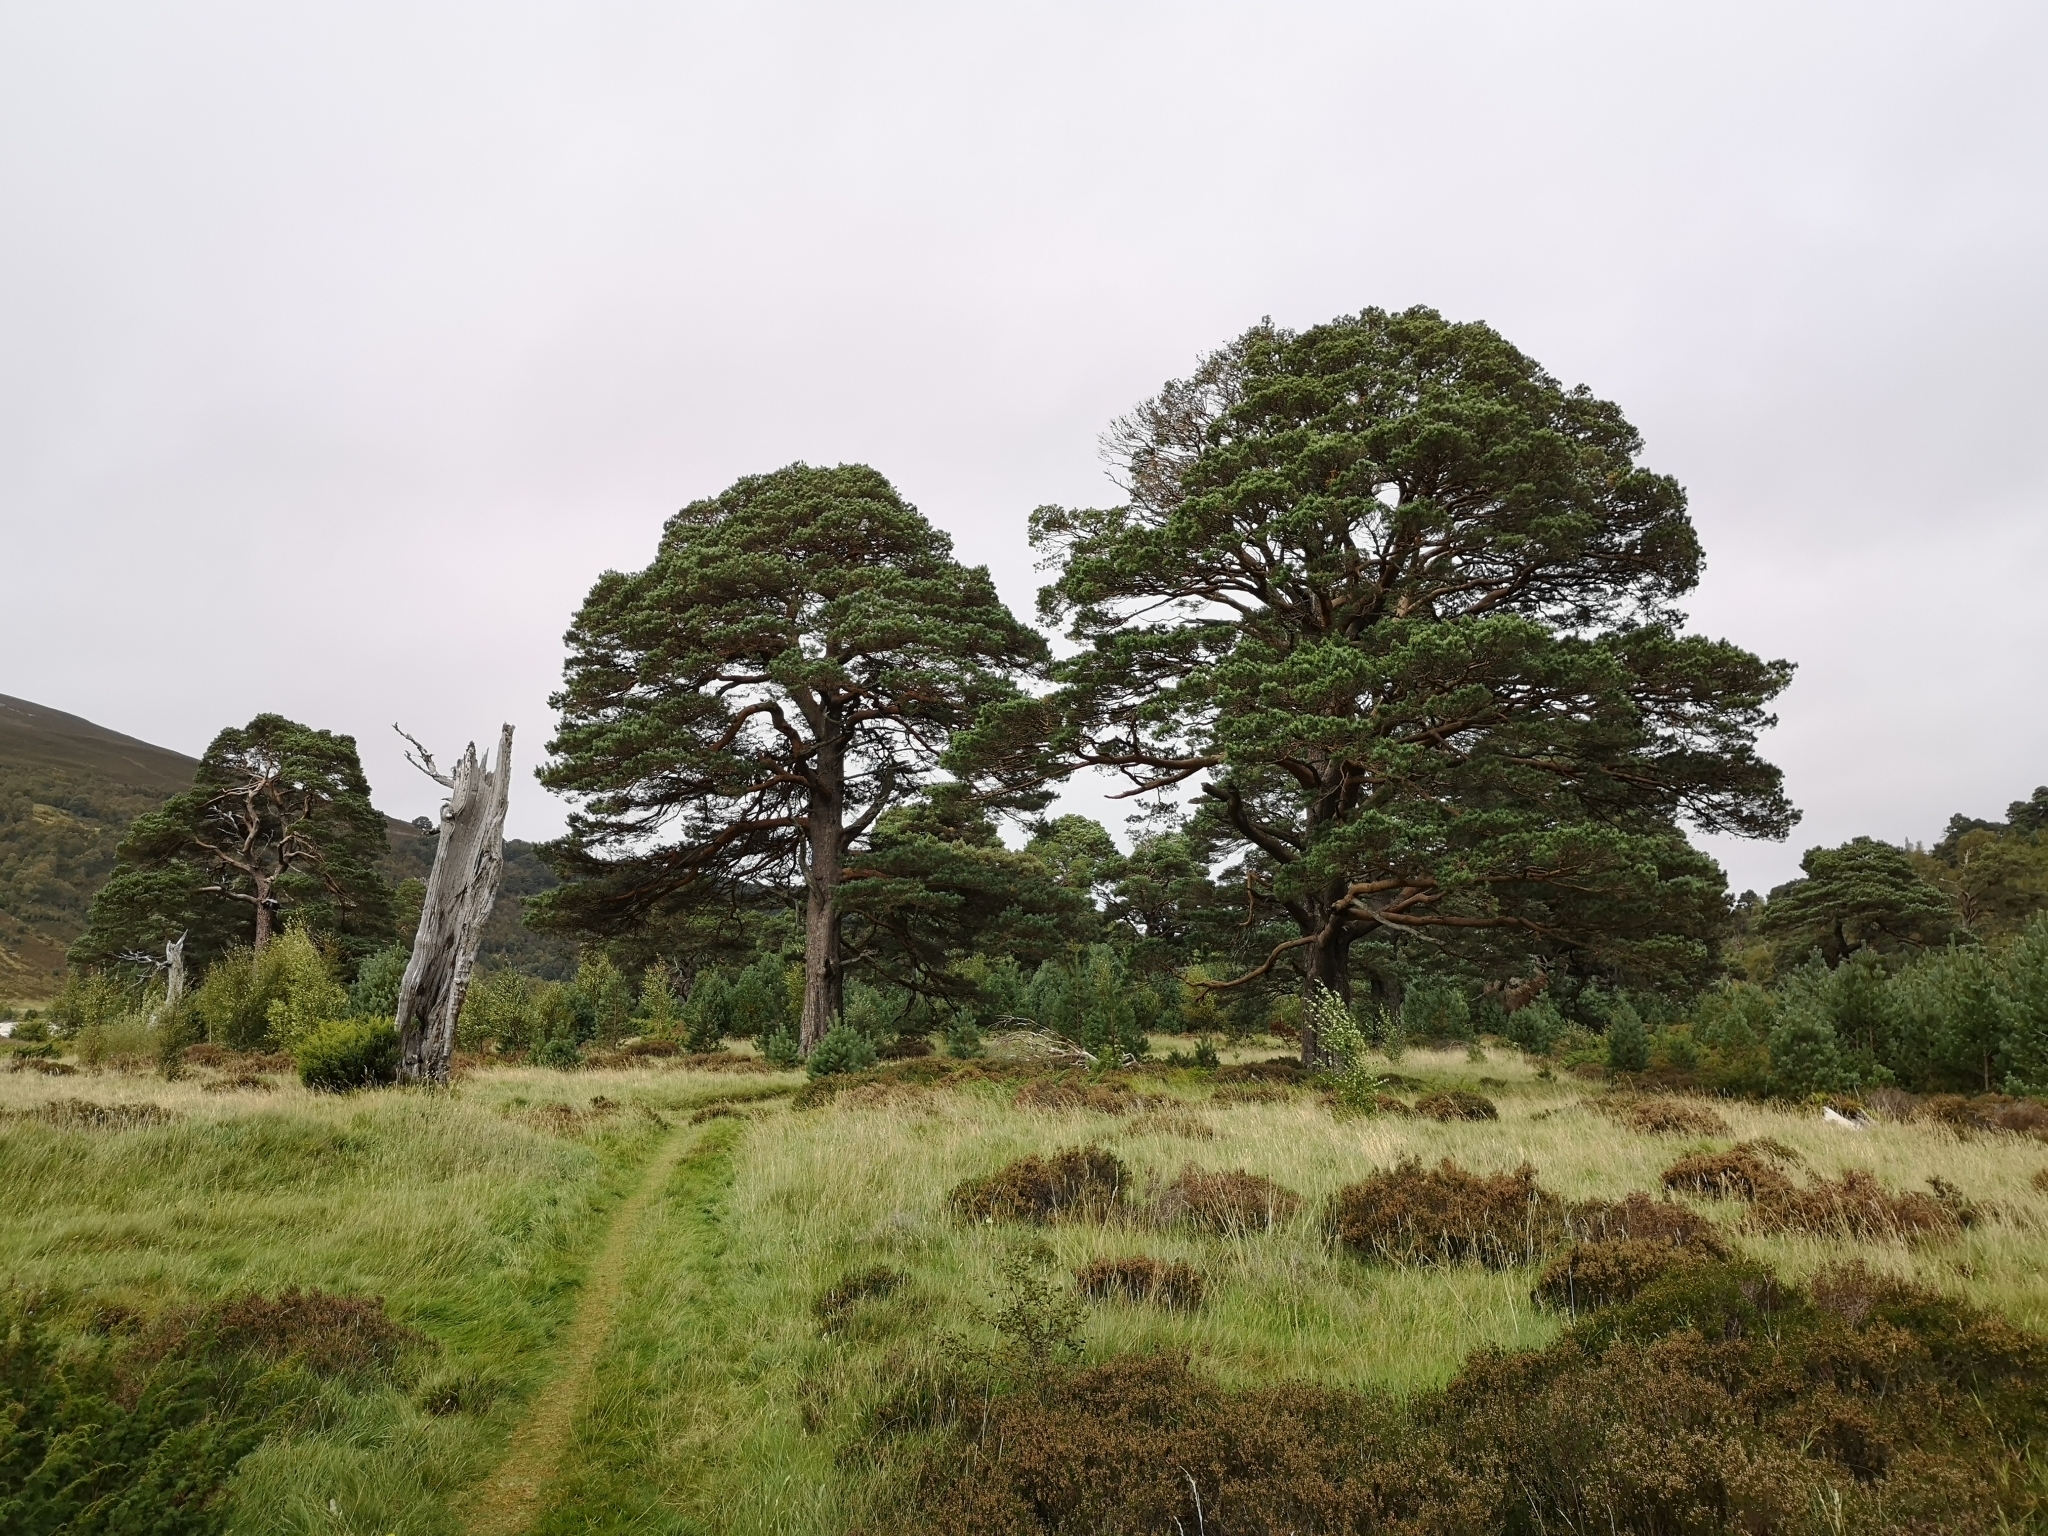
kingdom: Plantae
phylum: Tracheophyta
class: Pinopsida
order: Pinales
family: Pinaceae
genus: Pinus
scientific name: Pinus sylvestris
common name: Scots pine
